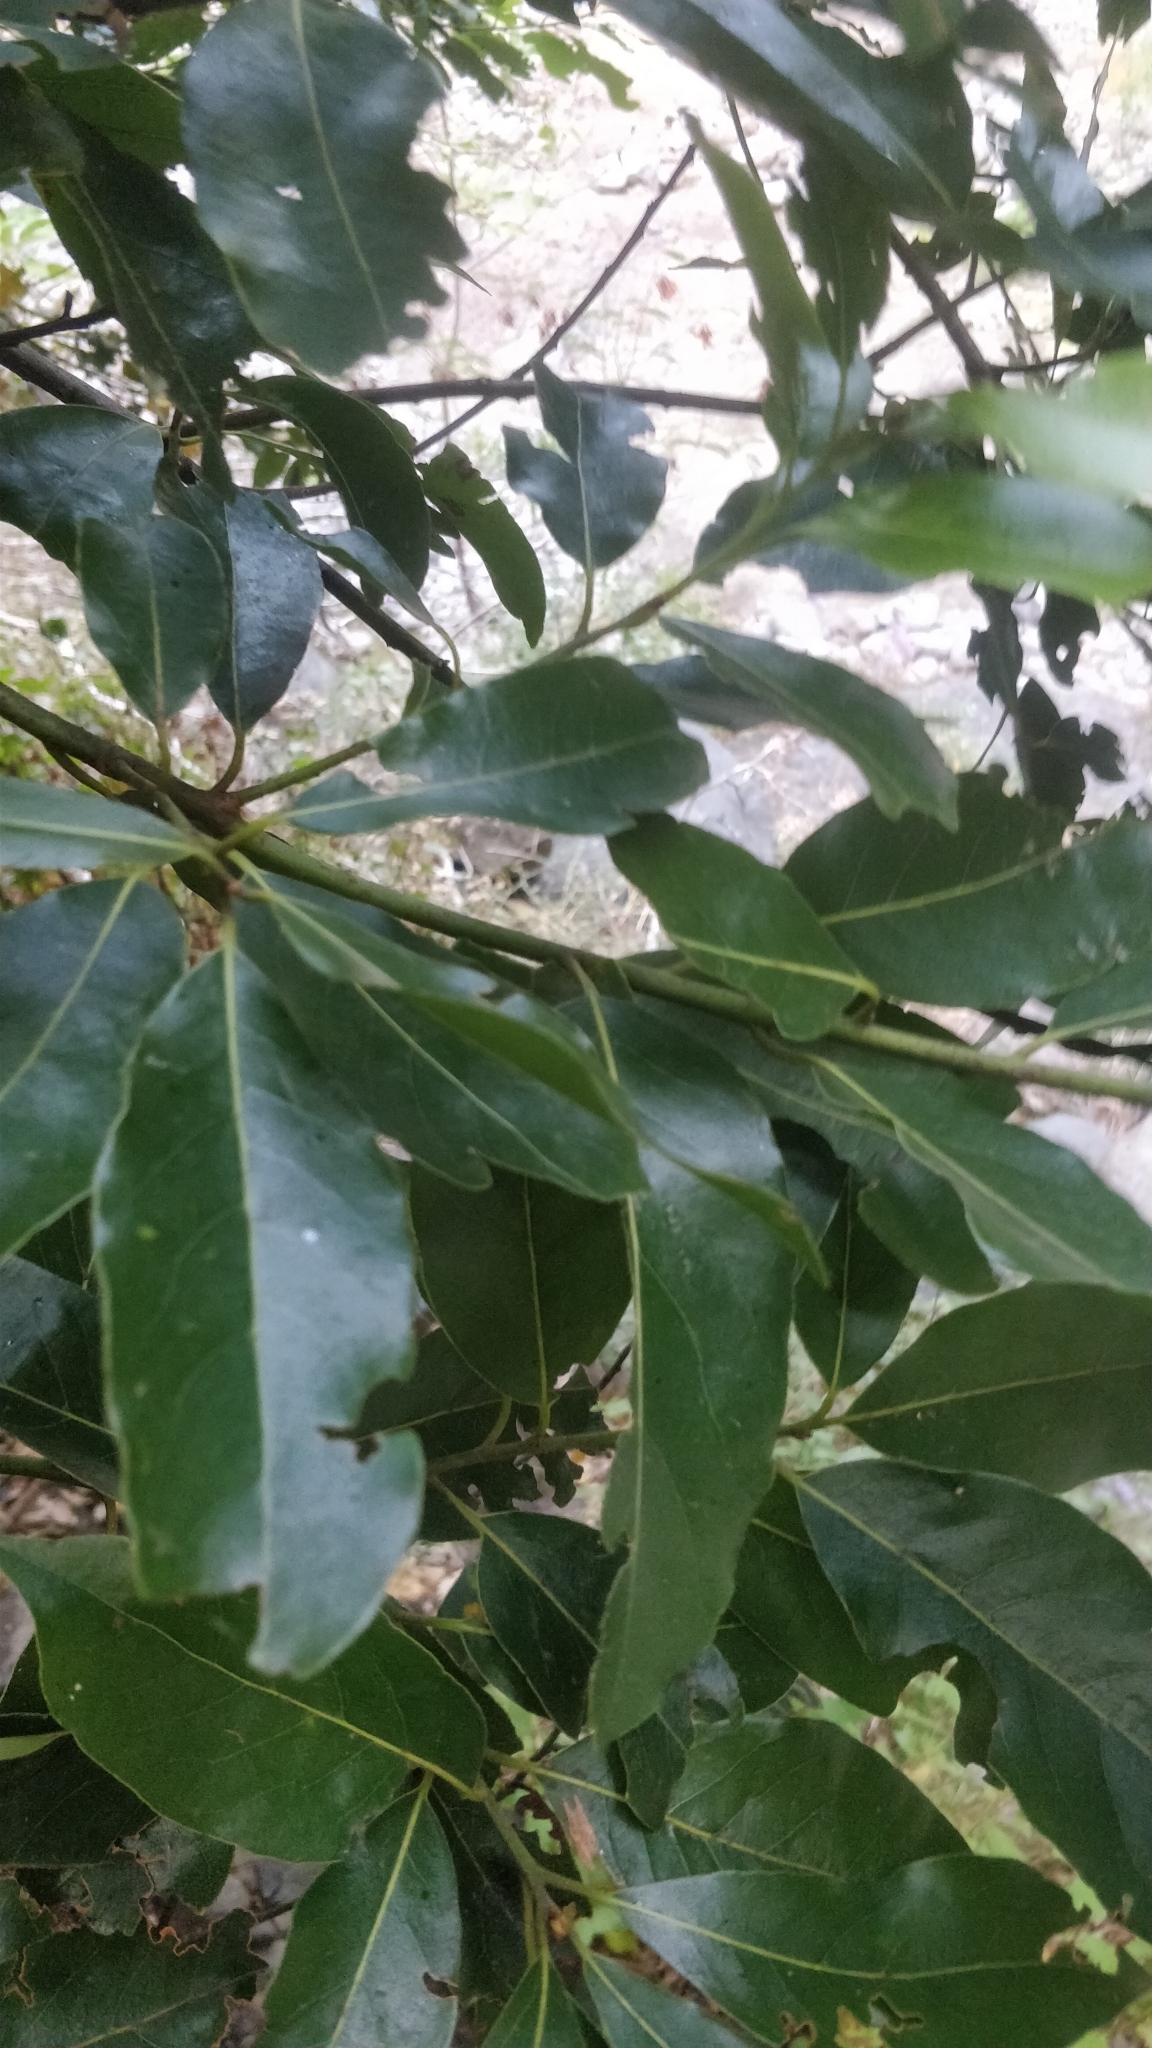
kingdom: Plantae
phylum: Tracheophyta
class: Magnoliopsida
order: Laurales
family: Lauraceae
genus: Laurus
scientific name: Laurus novocanariensis
